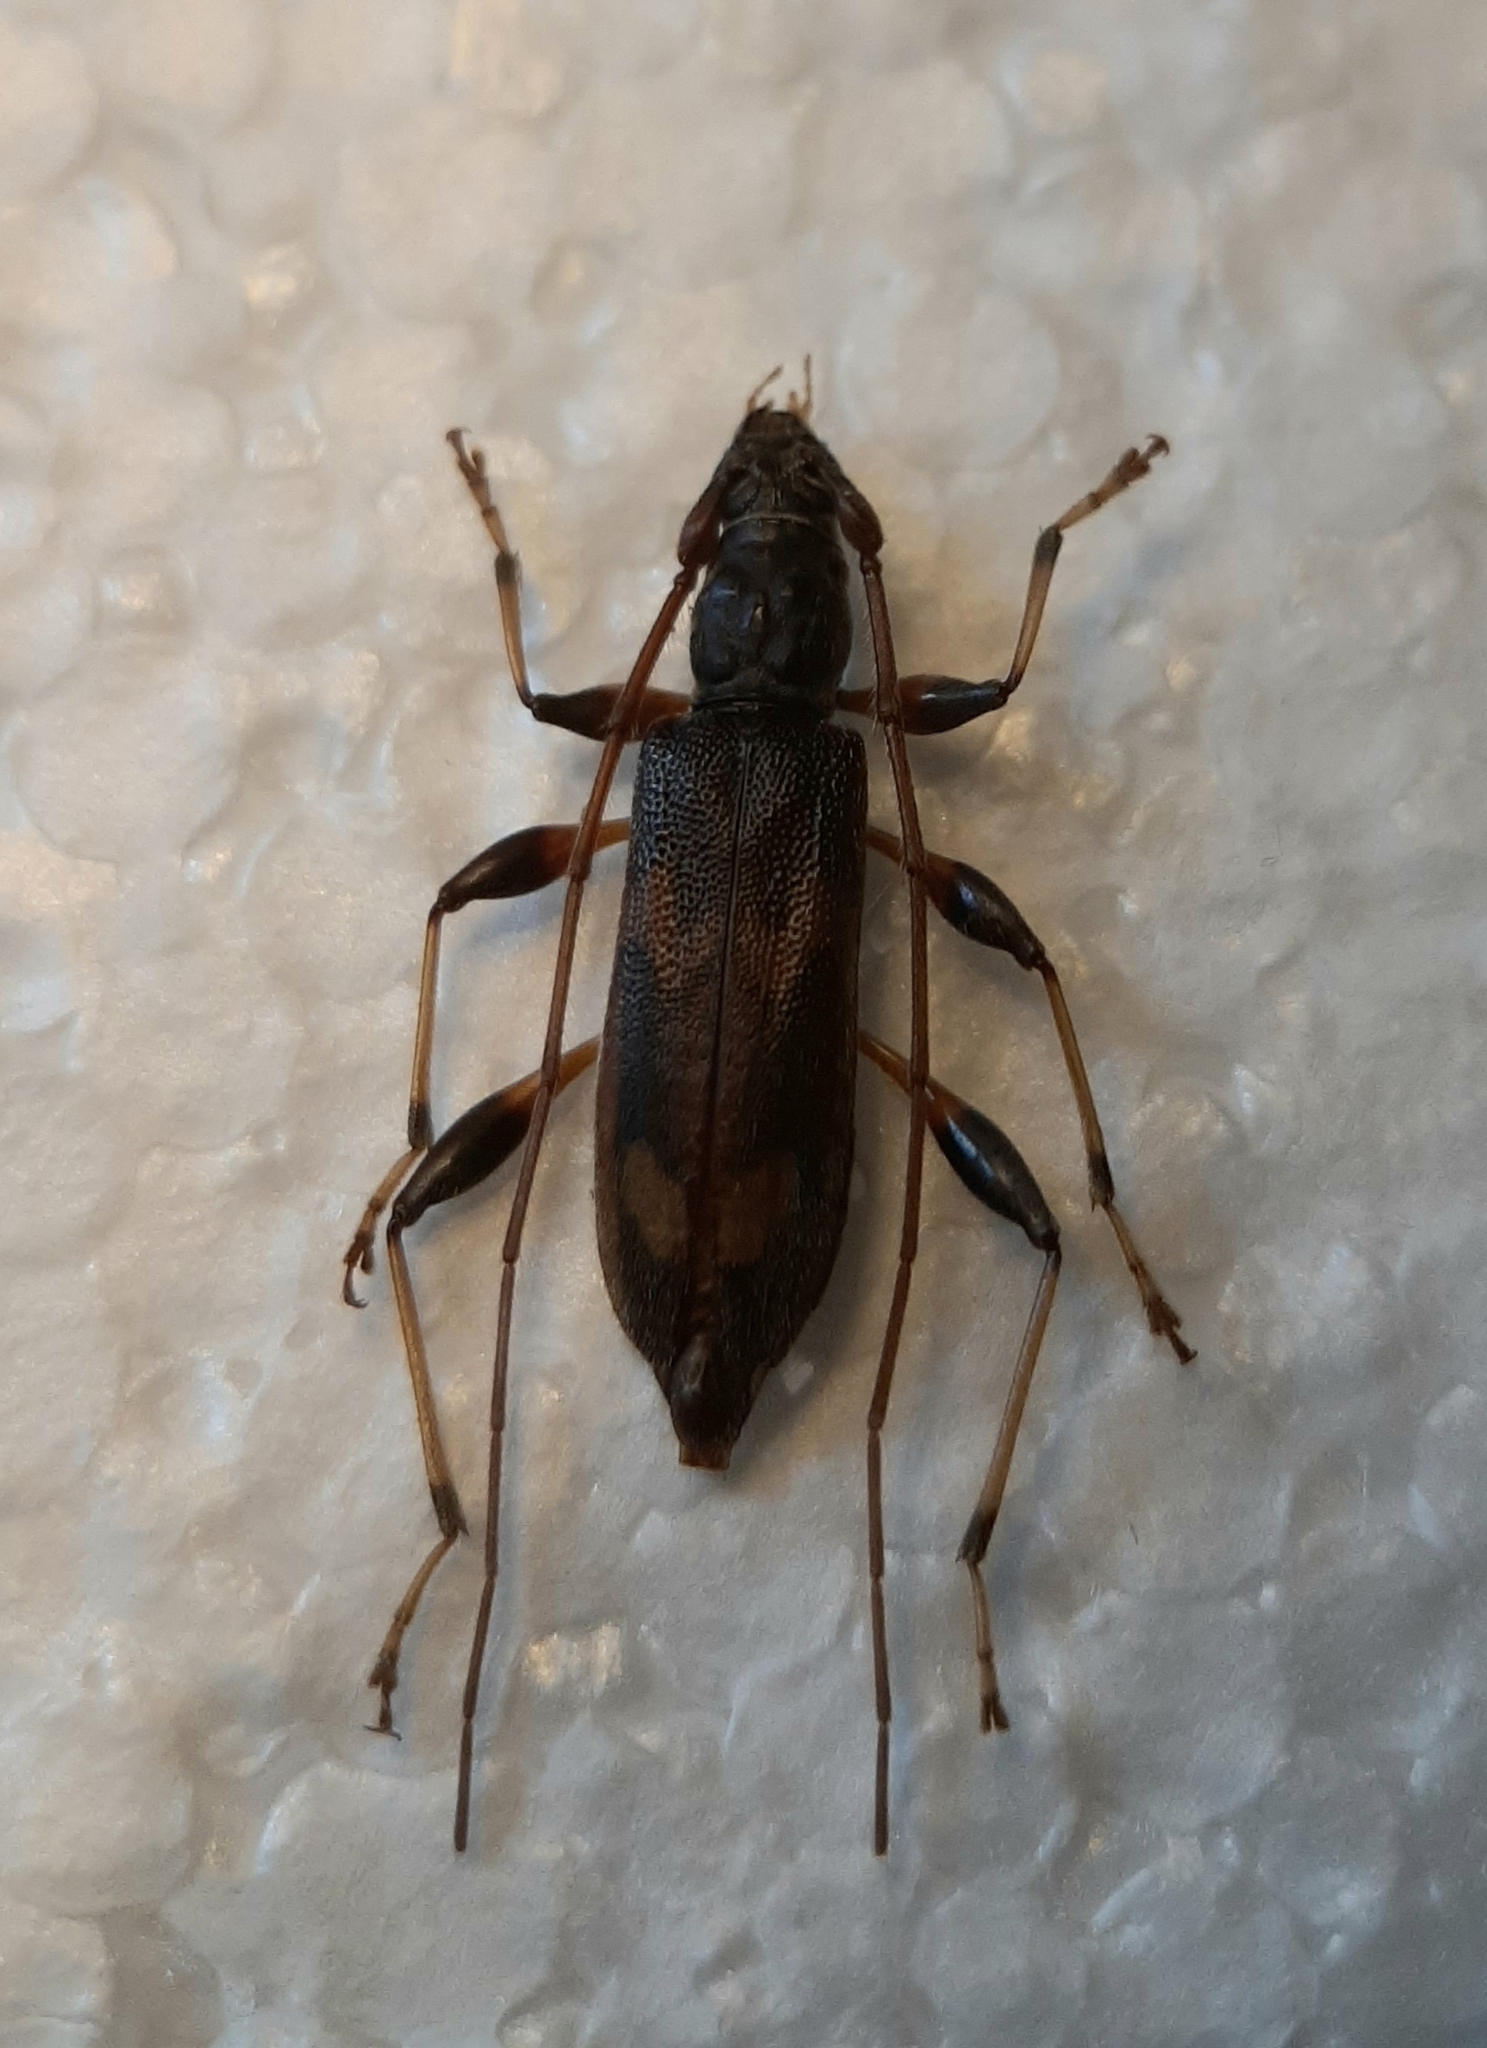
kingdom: Animalia
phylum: Arthropoda
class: Insecta
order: Coleoptera
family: Cerambycidae
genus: Araespor
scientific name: Araespor quinquepustulatus
